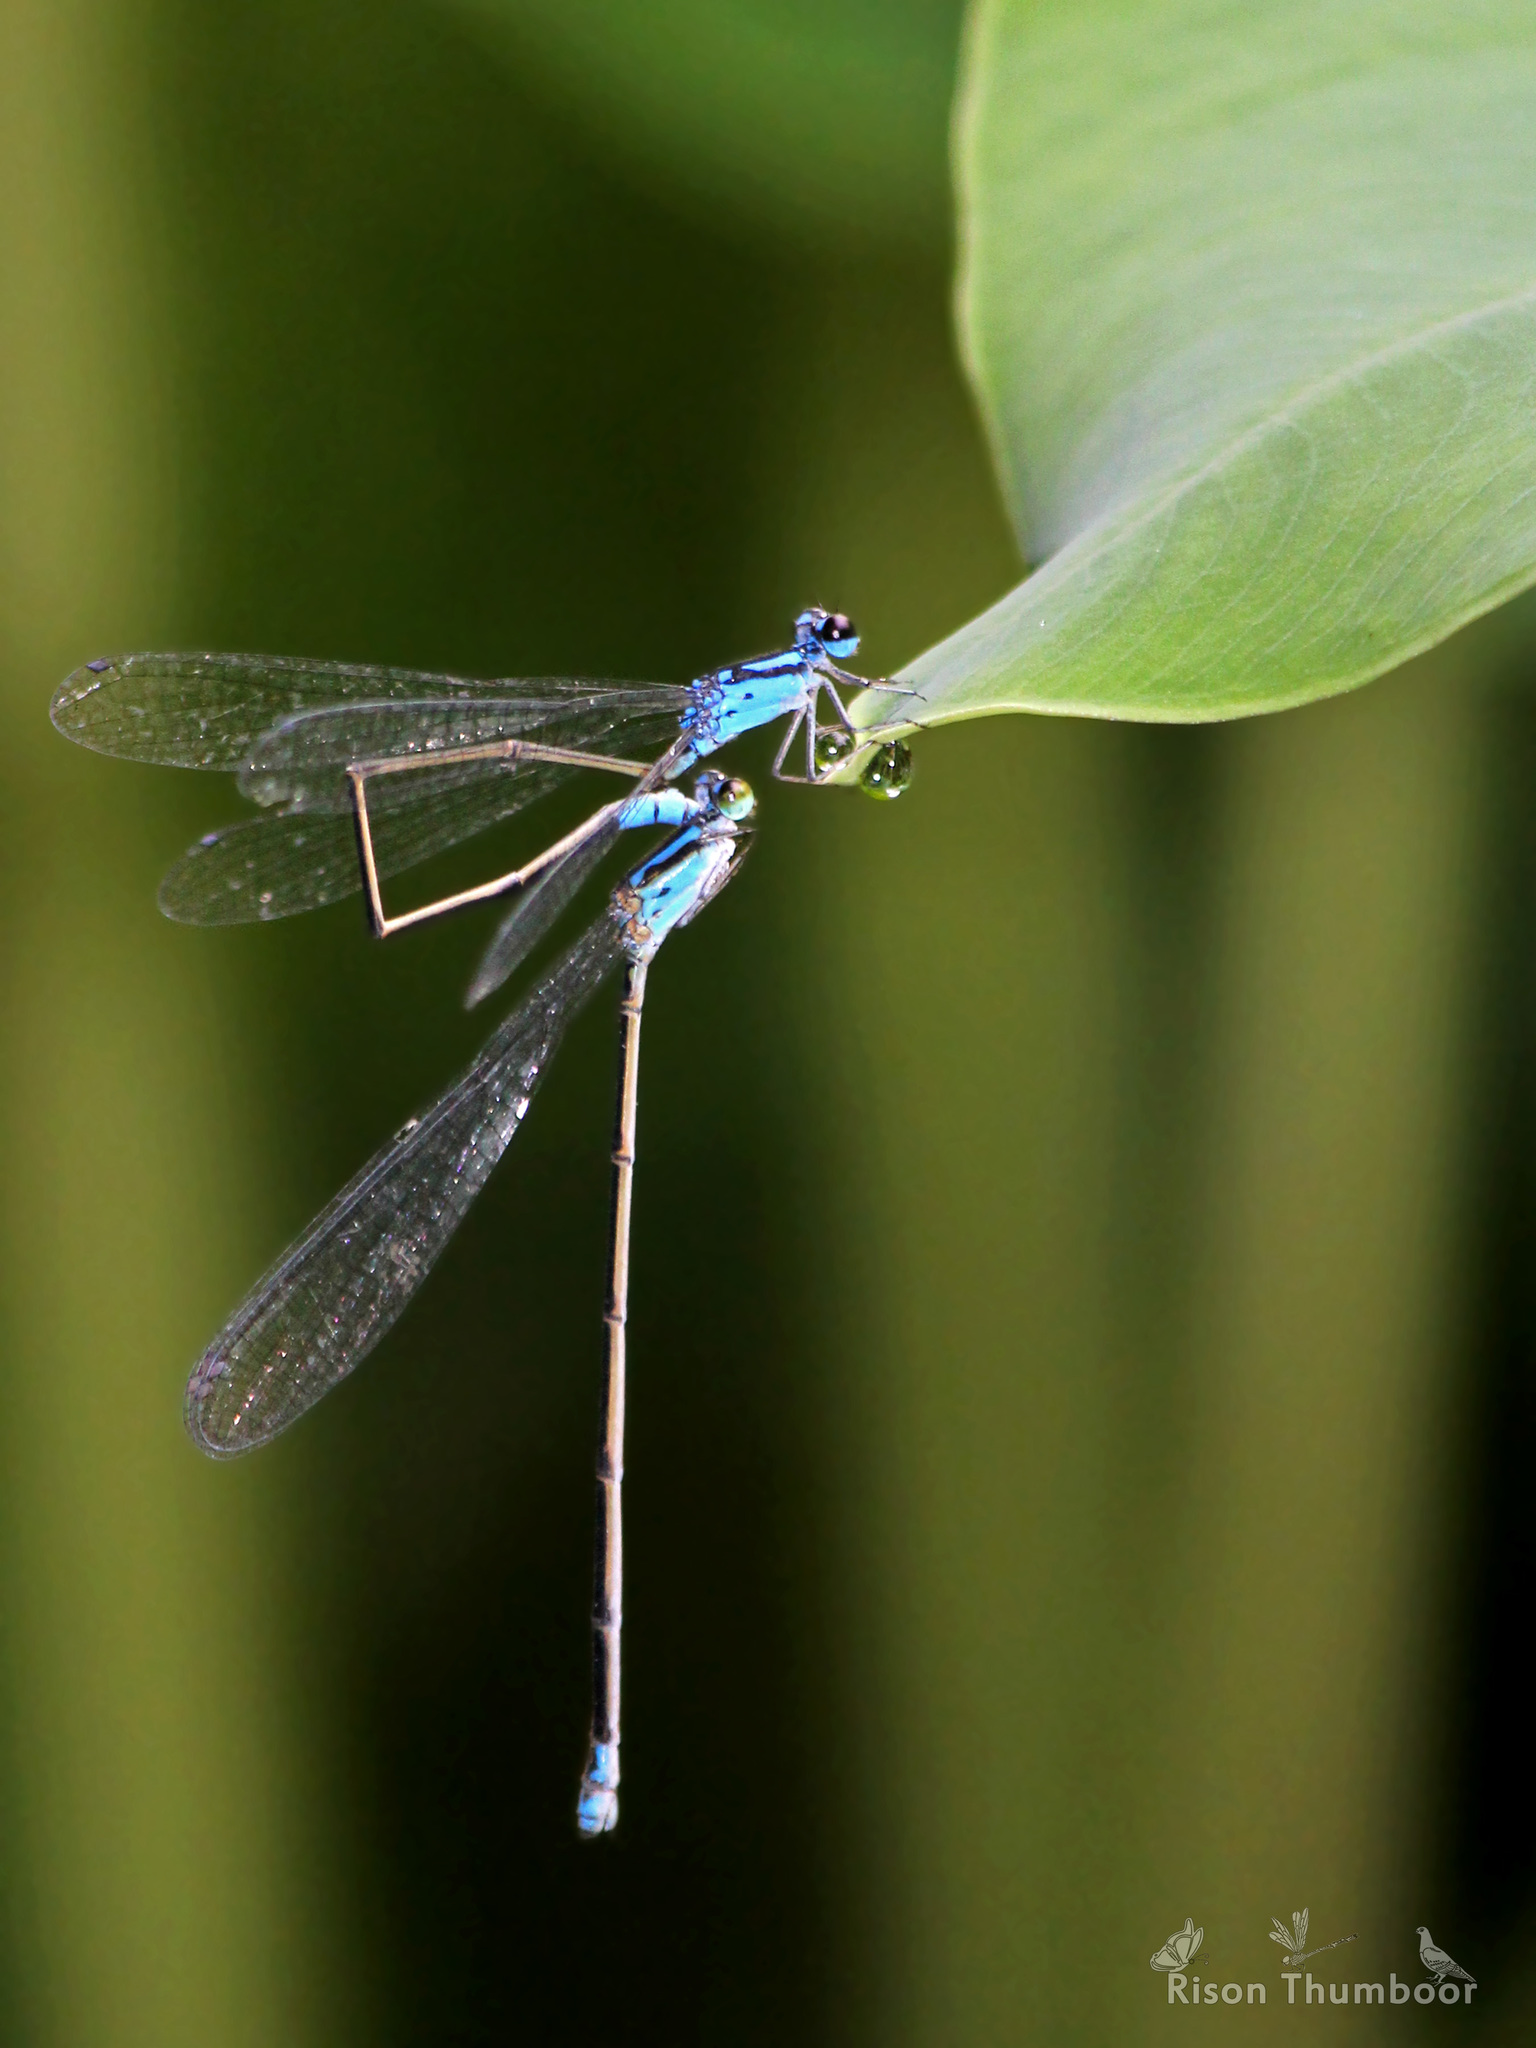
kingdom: Animalia
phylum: Arthropoda
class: Insecta
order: Odonata
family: Coenagrionidae
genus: Archibasis
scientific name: Archibasis oscillans
